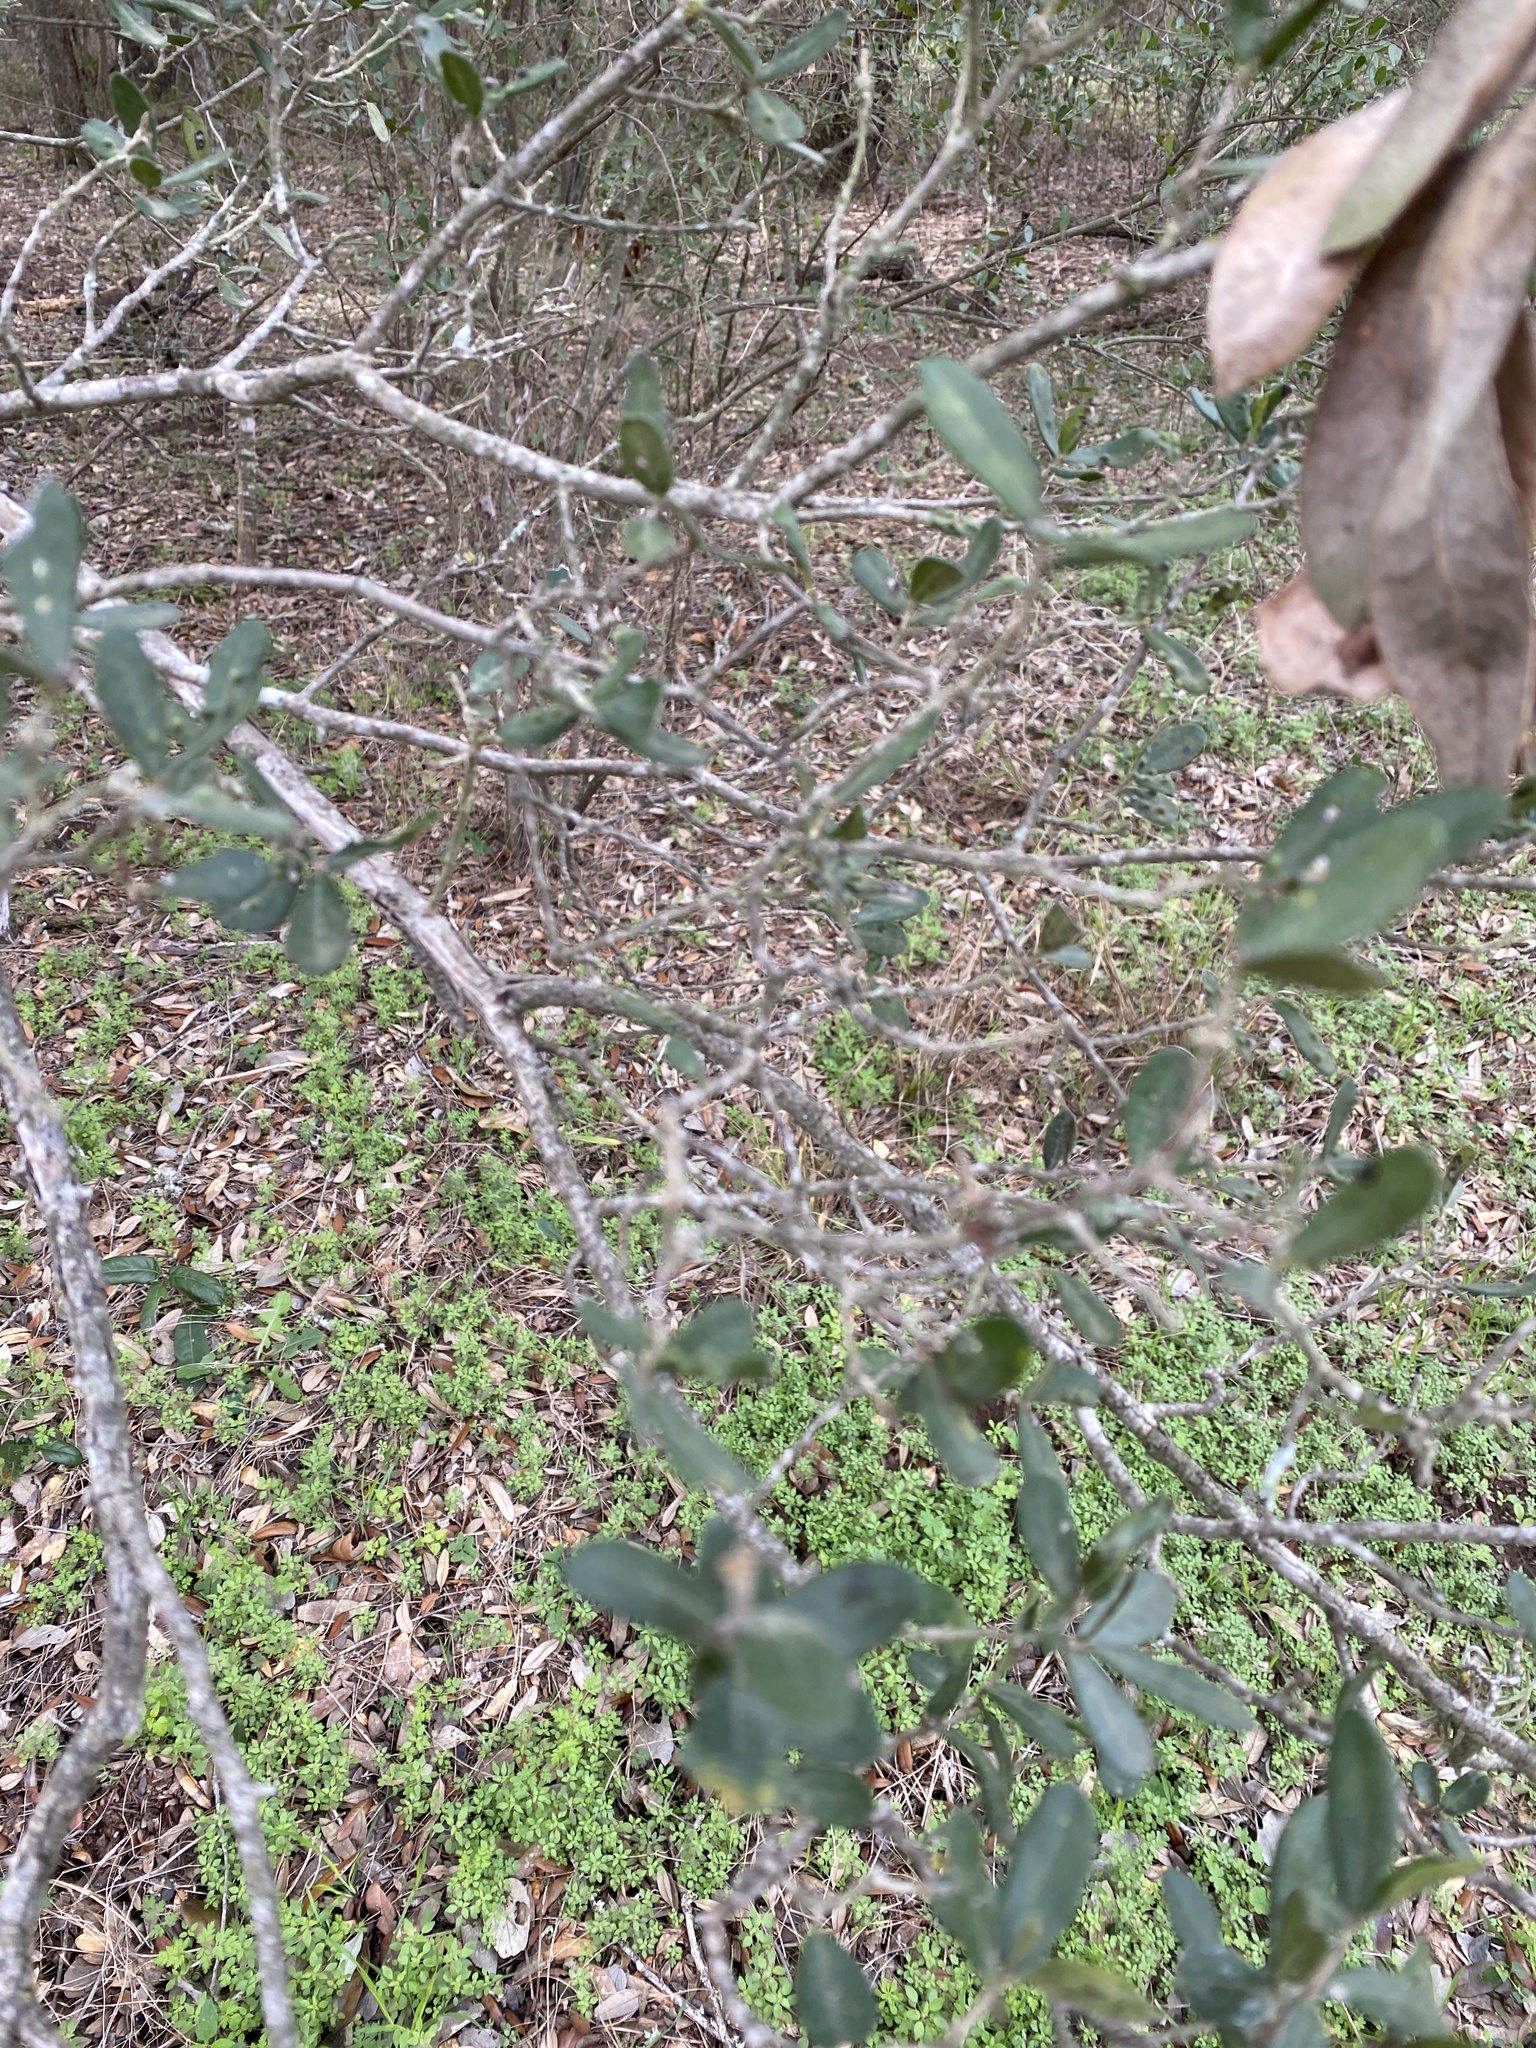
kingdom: Plantae
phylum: Tracheophyta
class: Magnoliopsida
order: Ericales
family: Ebenaceae
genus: Diospyros
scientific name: Diospyros texana
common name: Texas persimmon
